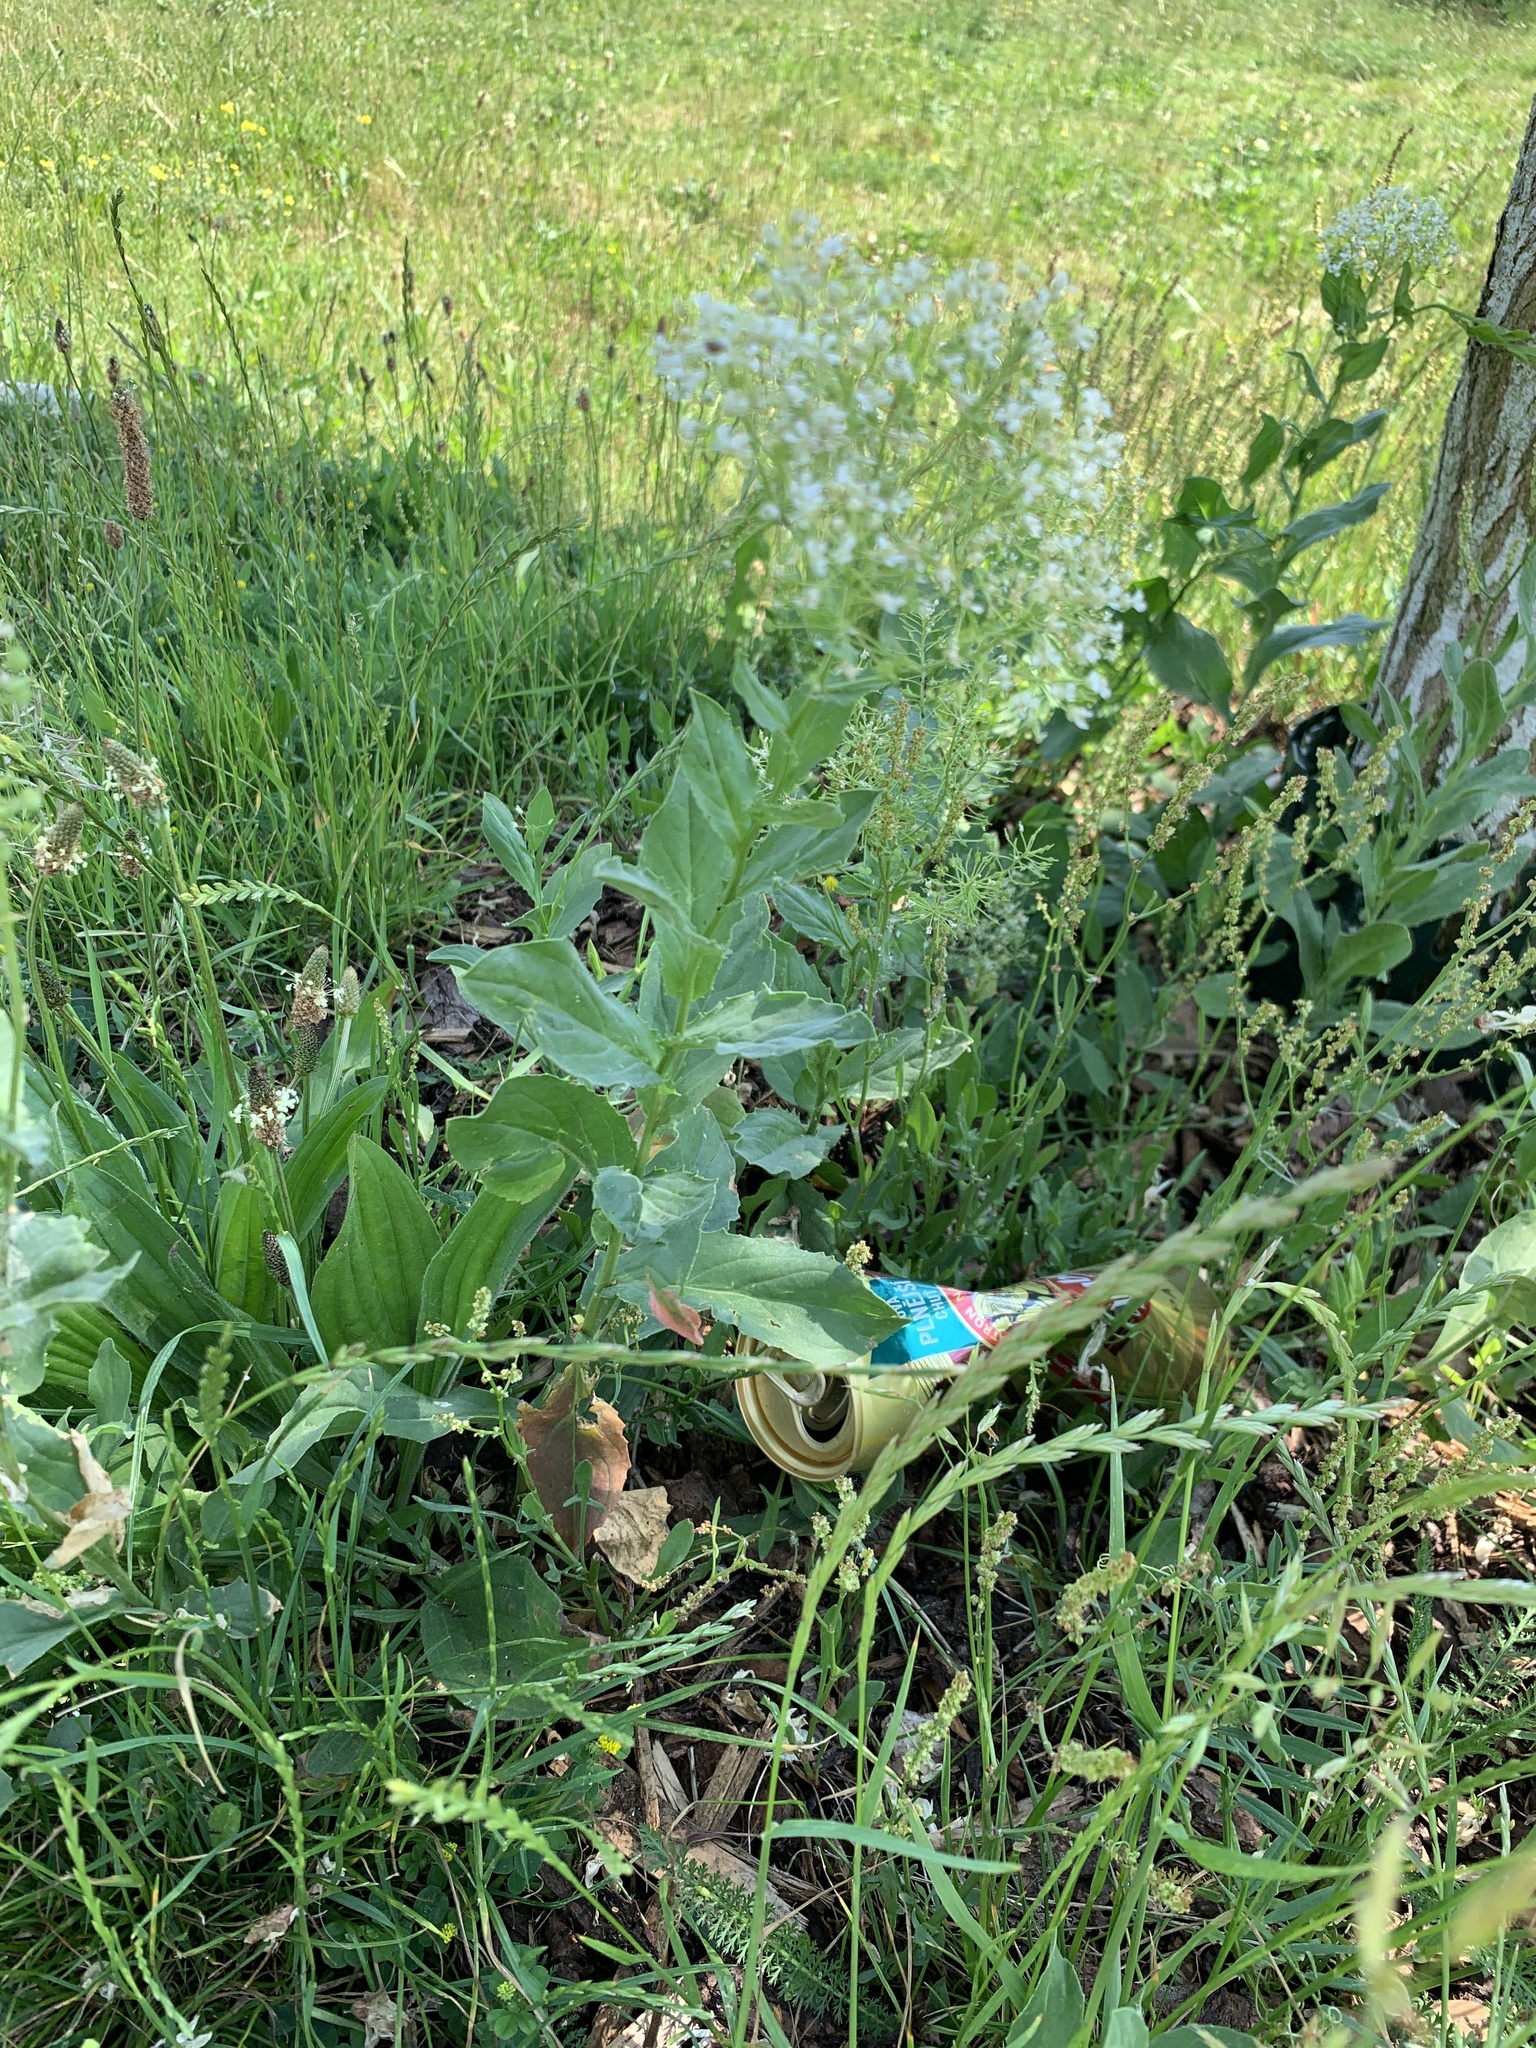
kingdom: Plantae
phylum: Tracheophyta
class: Magnoliopsida
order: Brassicales
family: Brassicaceae
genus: Lepidium
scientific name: Lepidium draba
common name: Hoary cress
